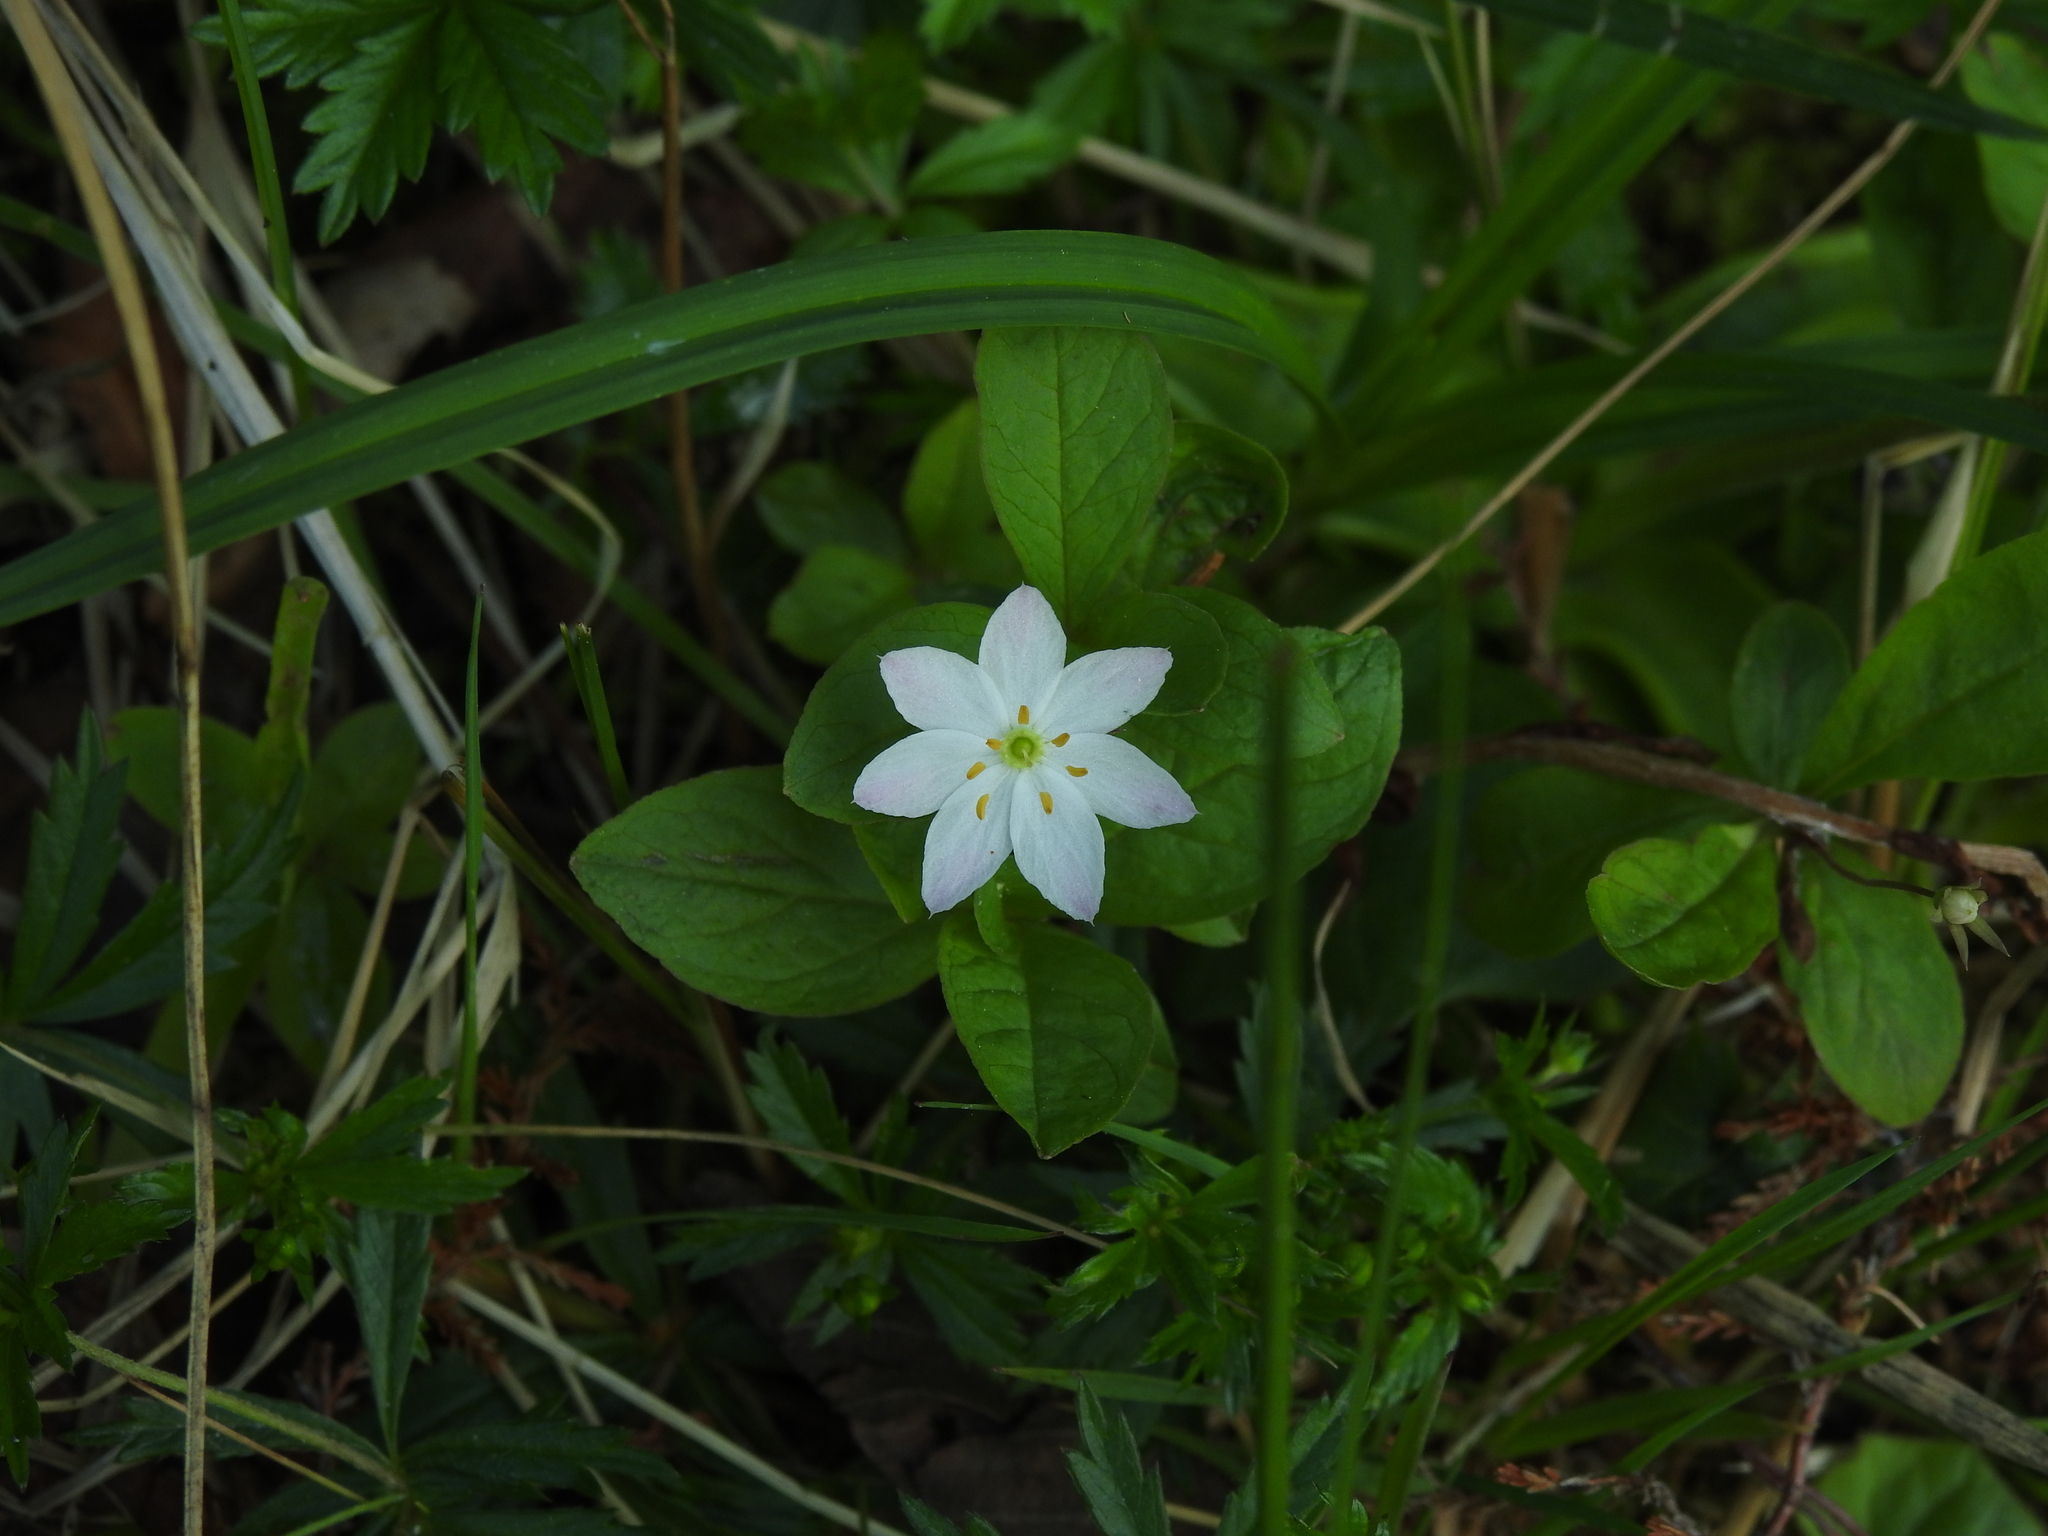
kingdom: Plantae
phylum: Tracheophyta
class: Magnoliopsida
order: Ericales
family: Primulaceae
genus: Lysimachia
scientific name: Lysimachia europaea
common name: Arctic starflower
